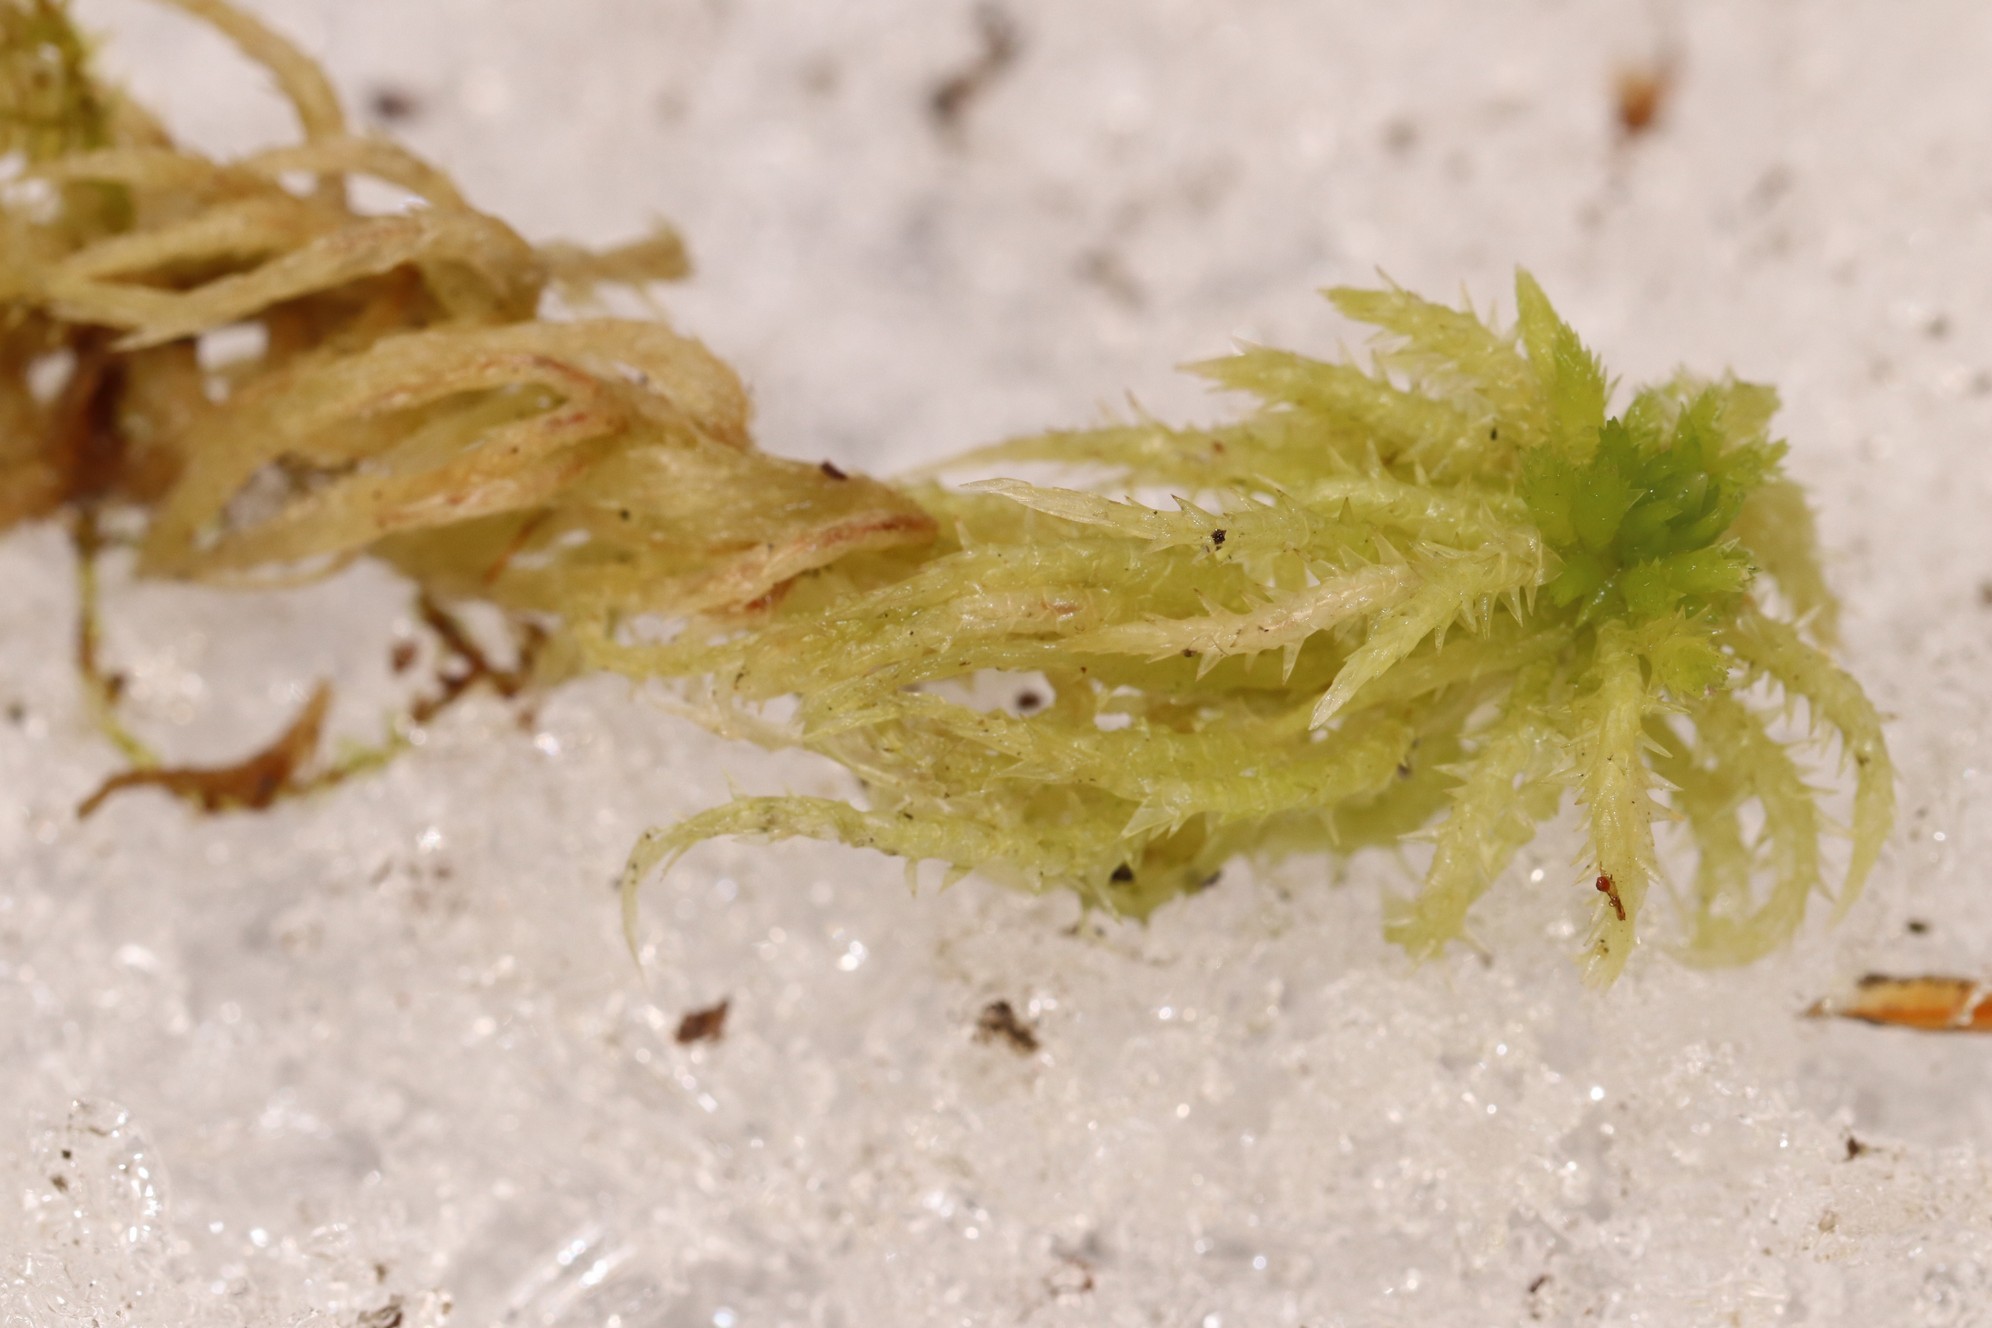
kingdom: Plantae
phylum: Bryophyta
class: Sphagnopsida
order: Sphagnales
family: Sphagnaceae
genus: Sphagnum
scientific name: Sphagnum squarrosum
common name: Shaggy peat moss
